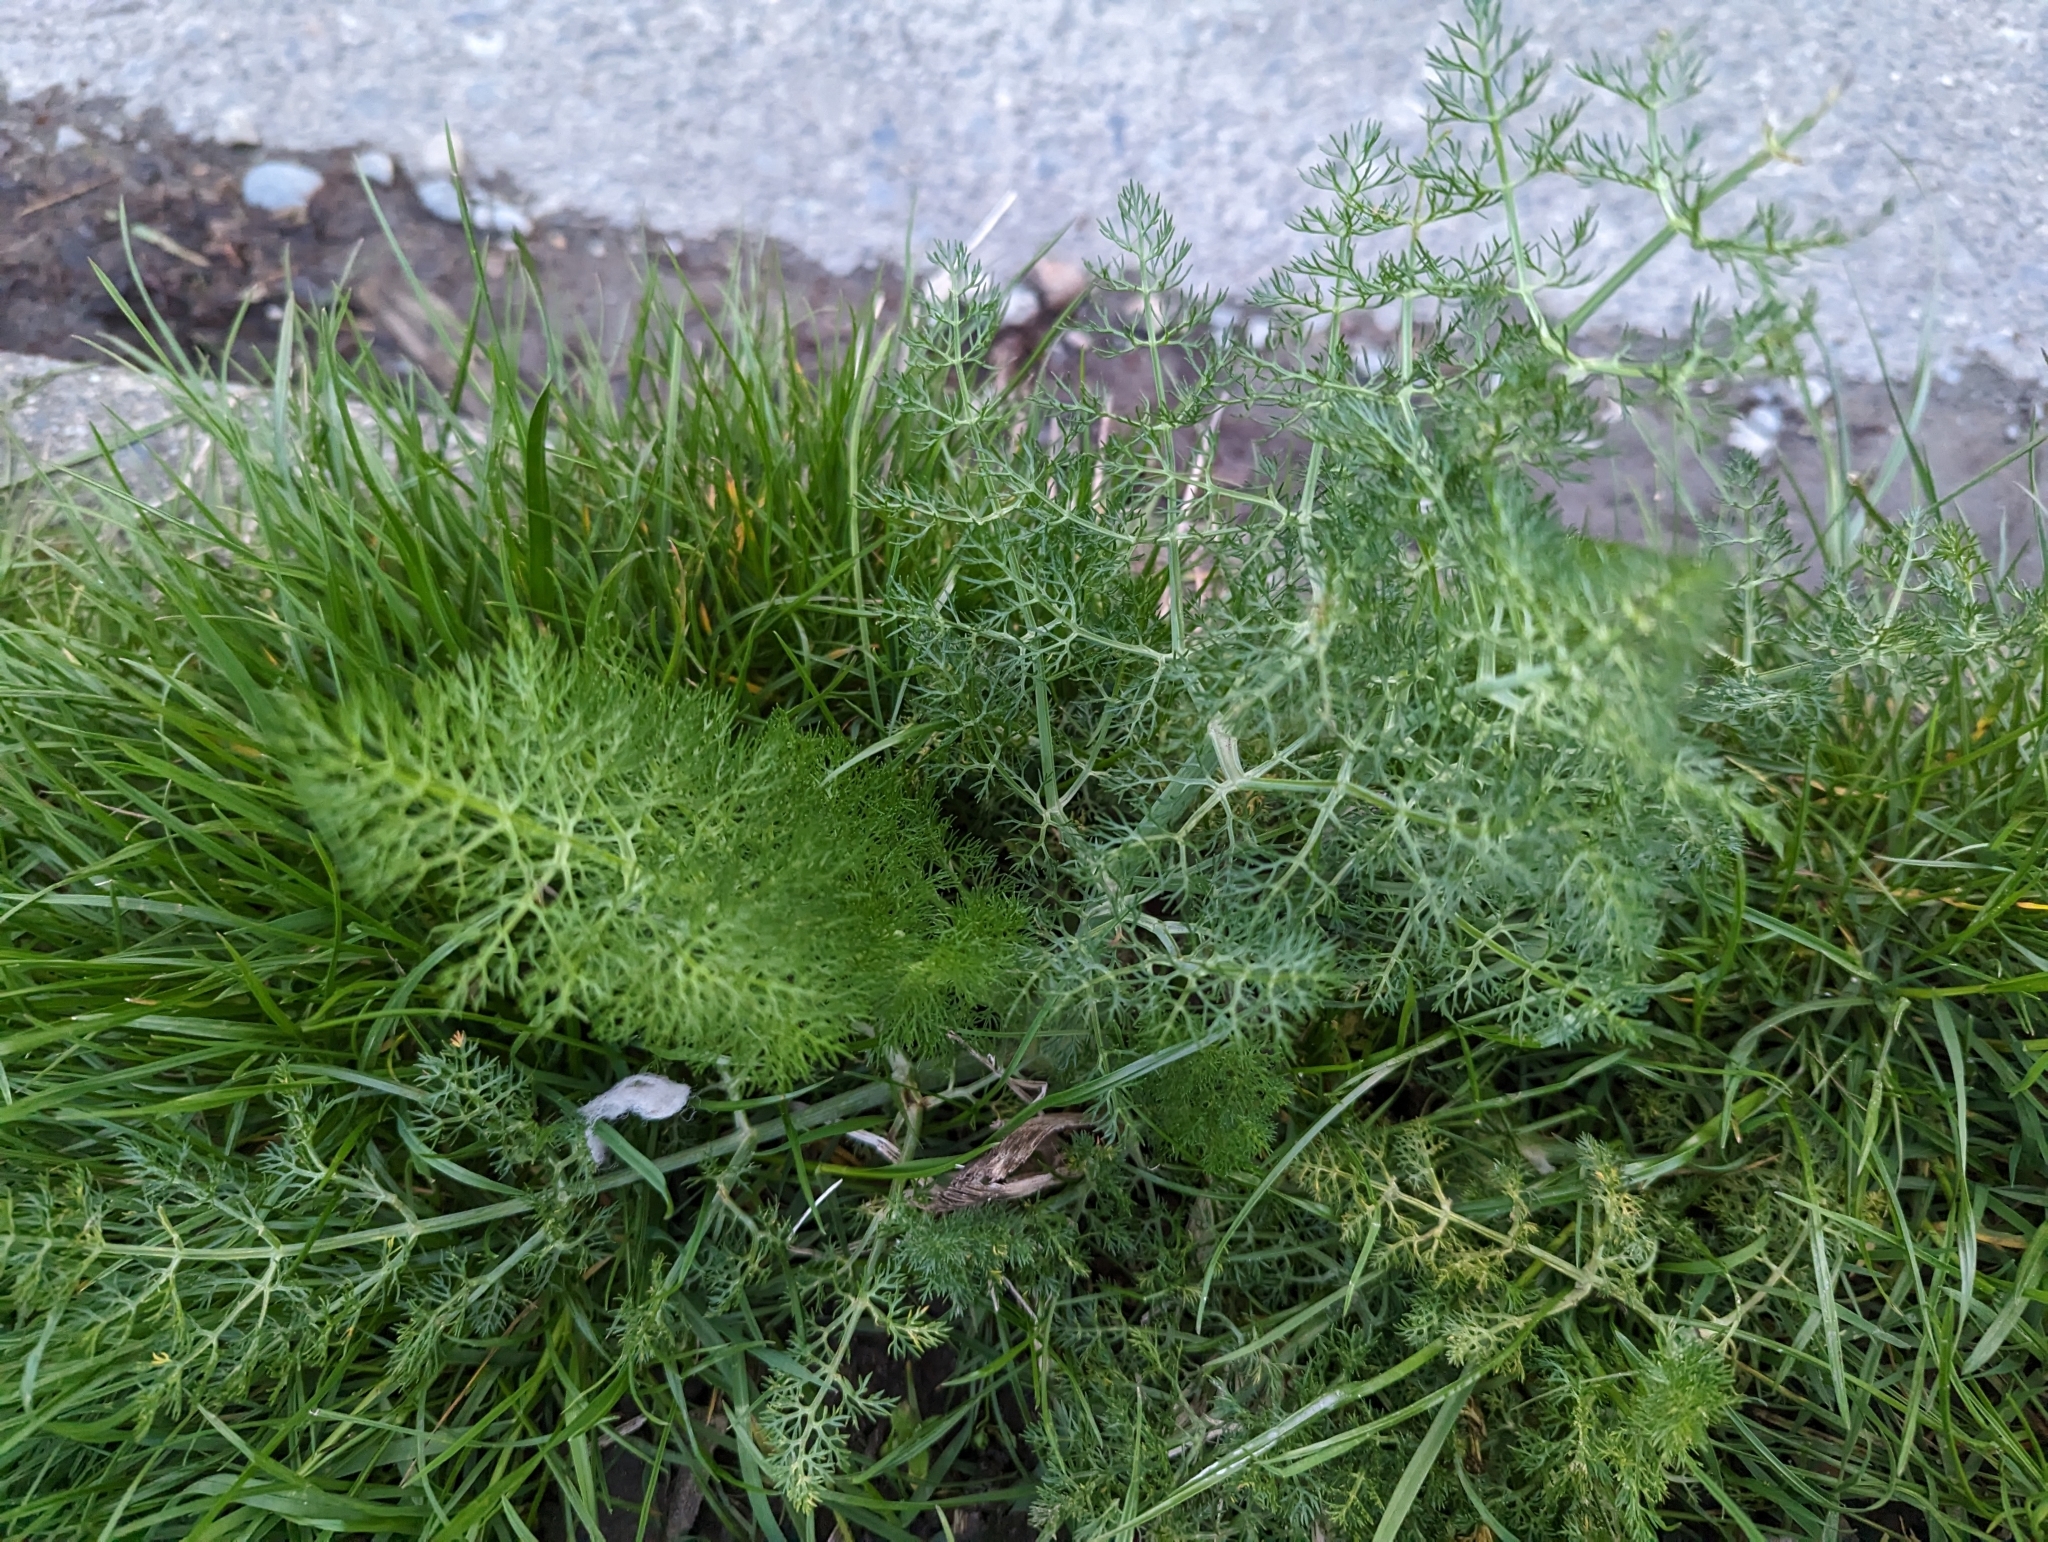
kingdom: Plantae
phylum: Tracheophyta
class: Magnoliopsida
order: Apiales
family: Apiaceae
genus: Foeniculum
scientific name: Foeniculum vulgare
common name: Fennel
